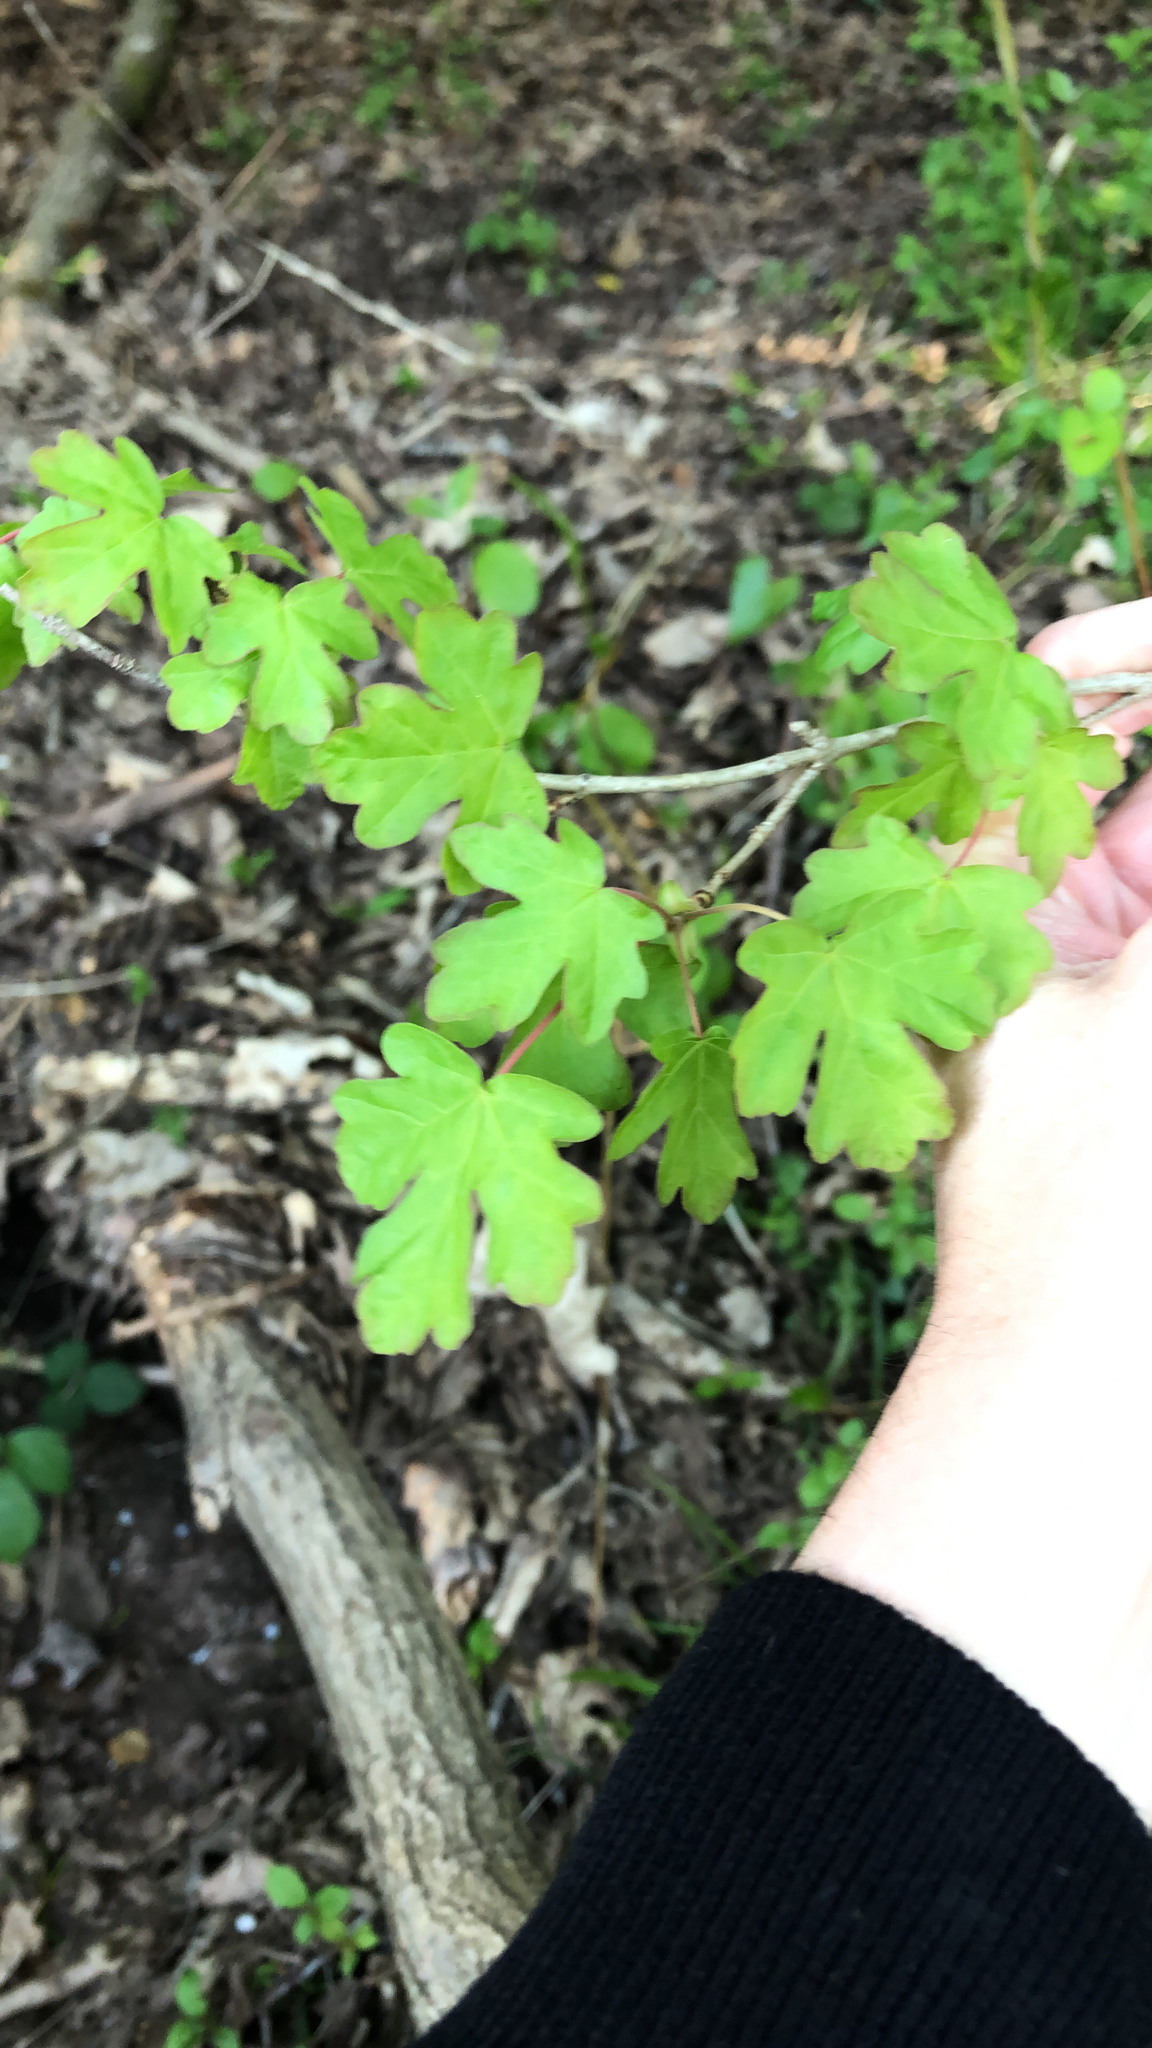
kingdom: Plantae
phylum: Tracheophyta
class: Magnoliopsida
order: Sapindales
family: Sapindaceae
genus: Acer
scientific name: Acer campestre
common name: Field maple
